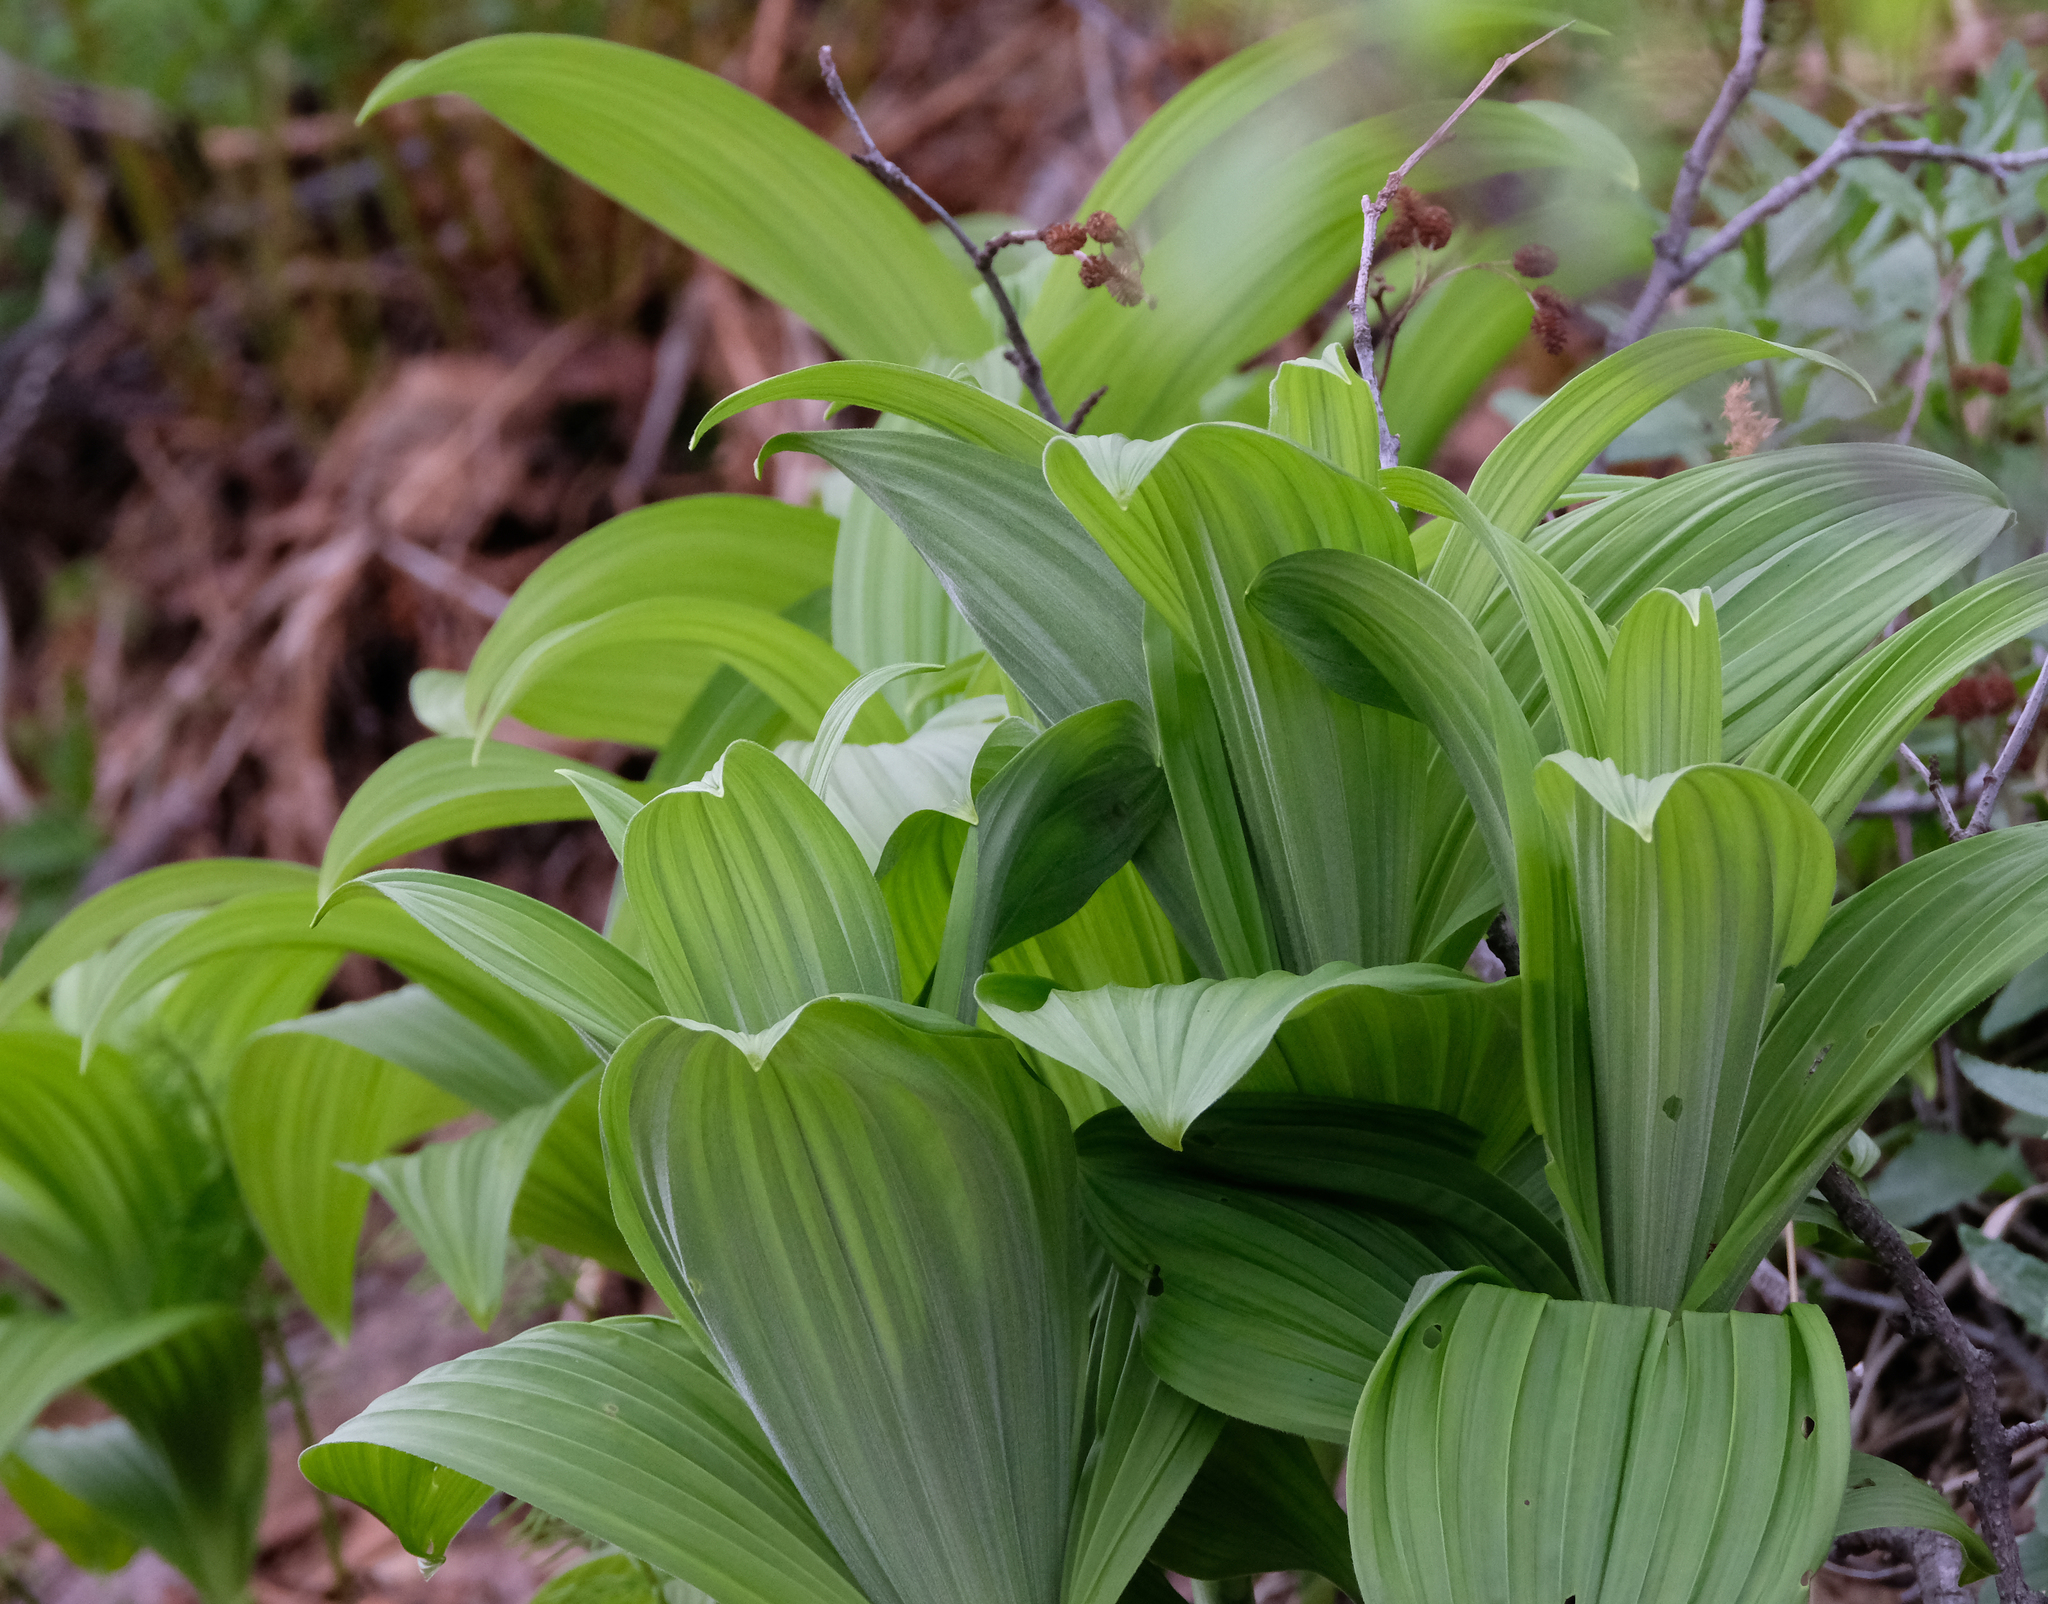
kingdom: Plantae
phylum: Tracheophyta
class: Liliopsida
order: Liliales
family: Melanthiaceae
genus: Veratrum
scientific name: Veratrum viride
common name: American false hellebore
